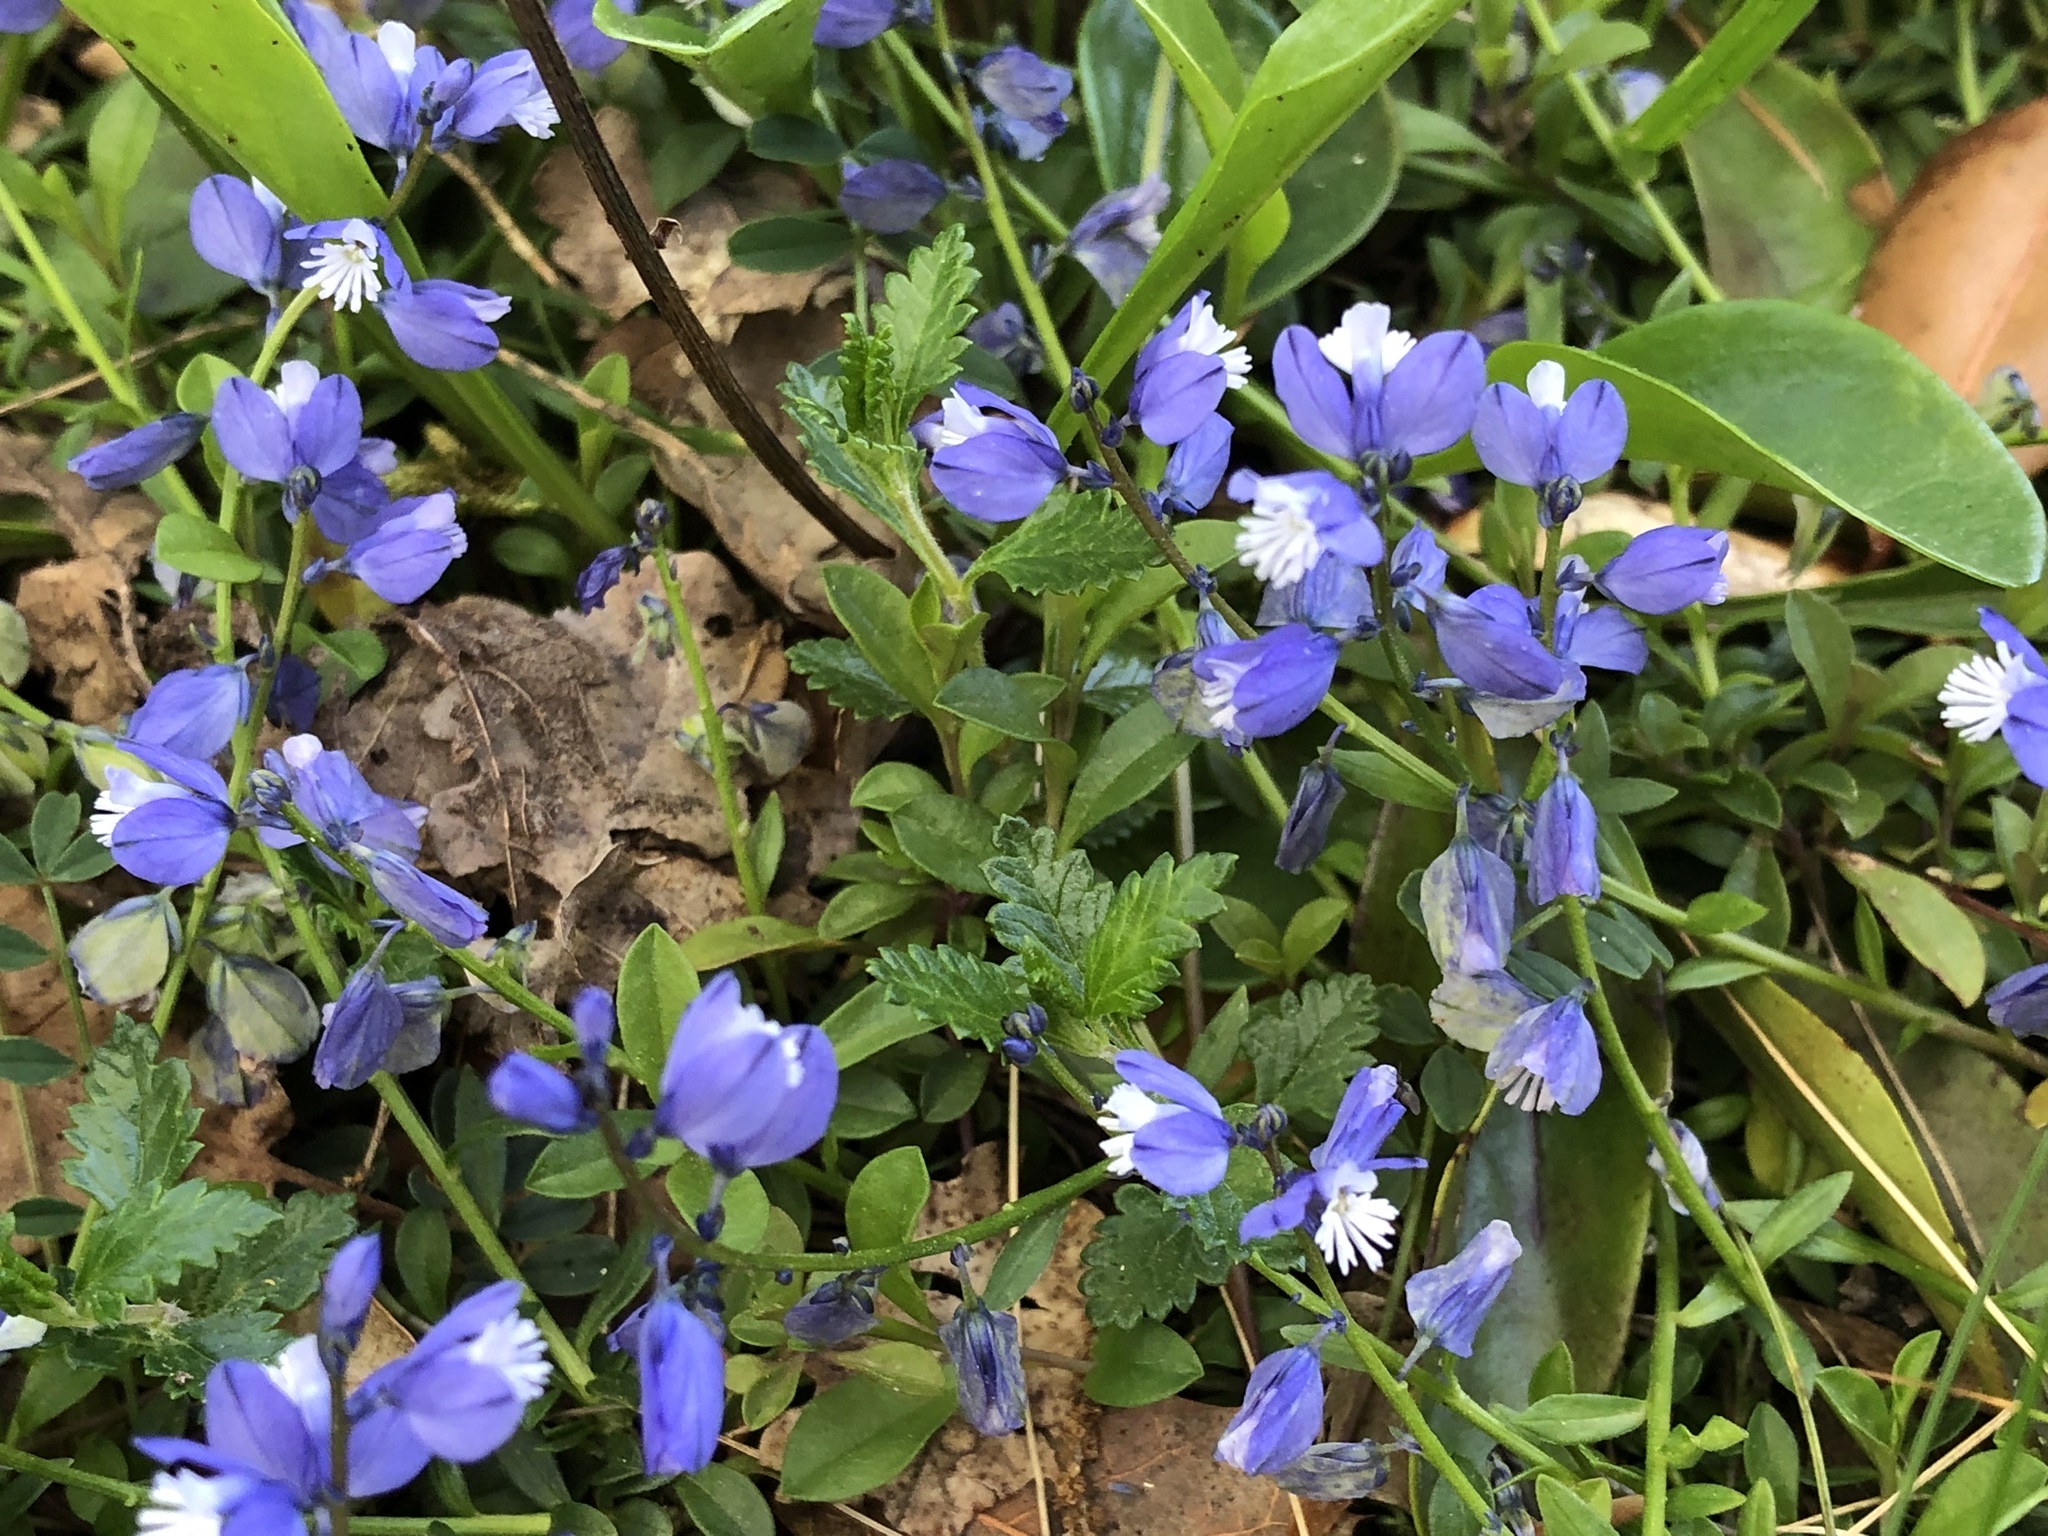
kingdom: Plantae
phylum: Tracheophyta
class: Magnoliopsida
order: Fabales
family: Polygalaceae
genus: Polygala
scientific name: Polygala vulgaris
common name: Common milkwort
